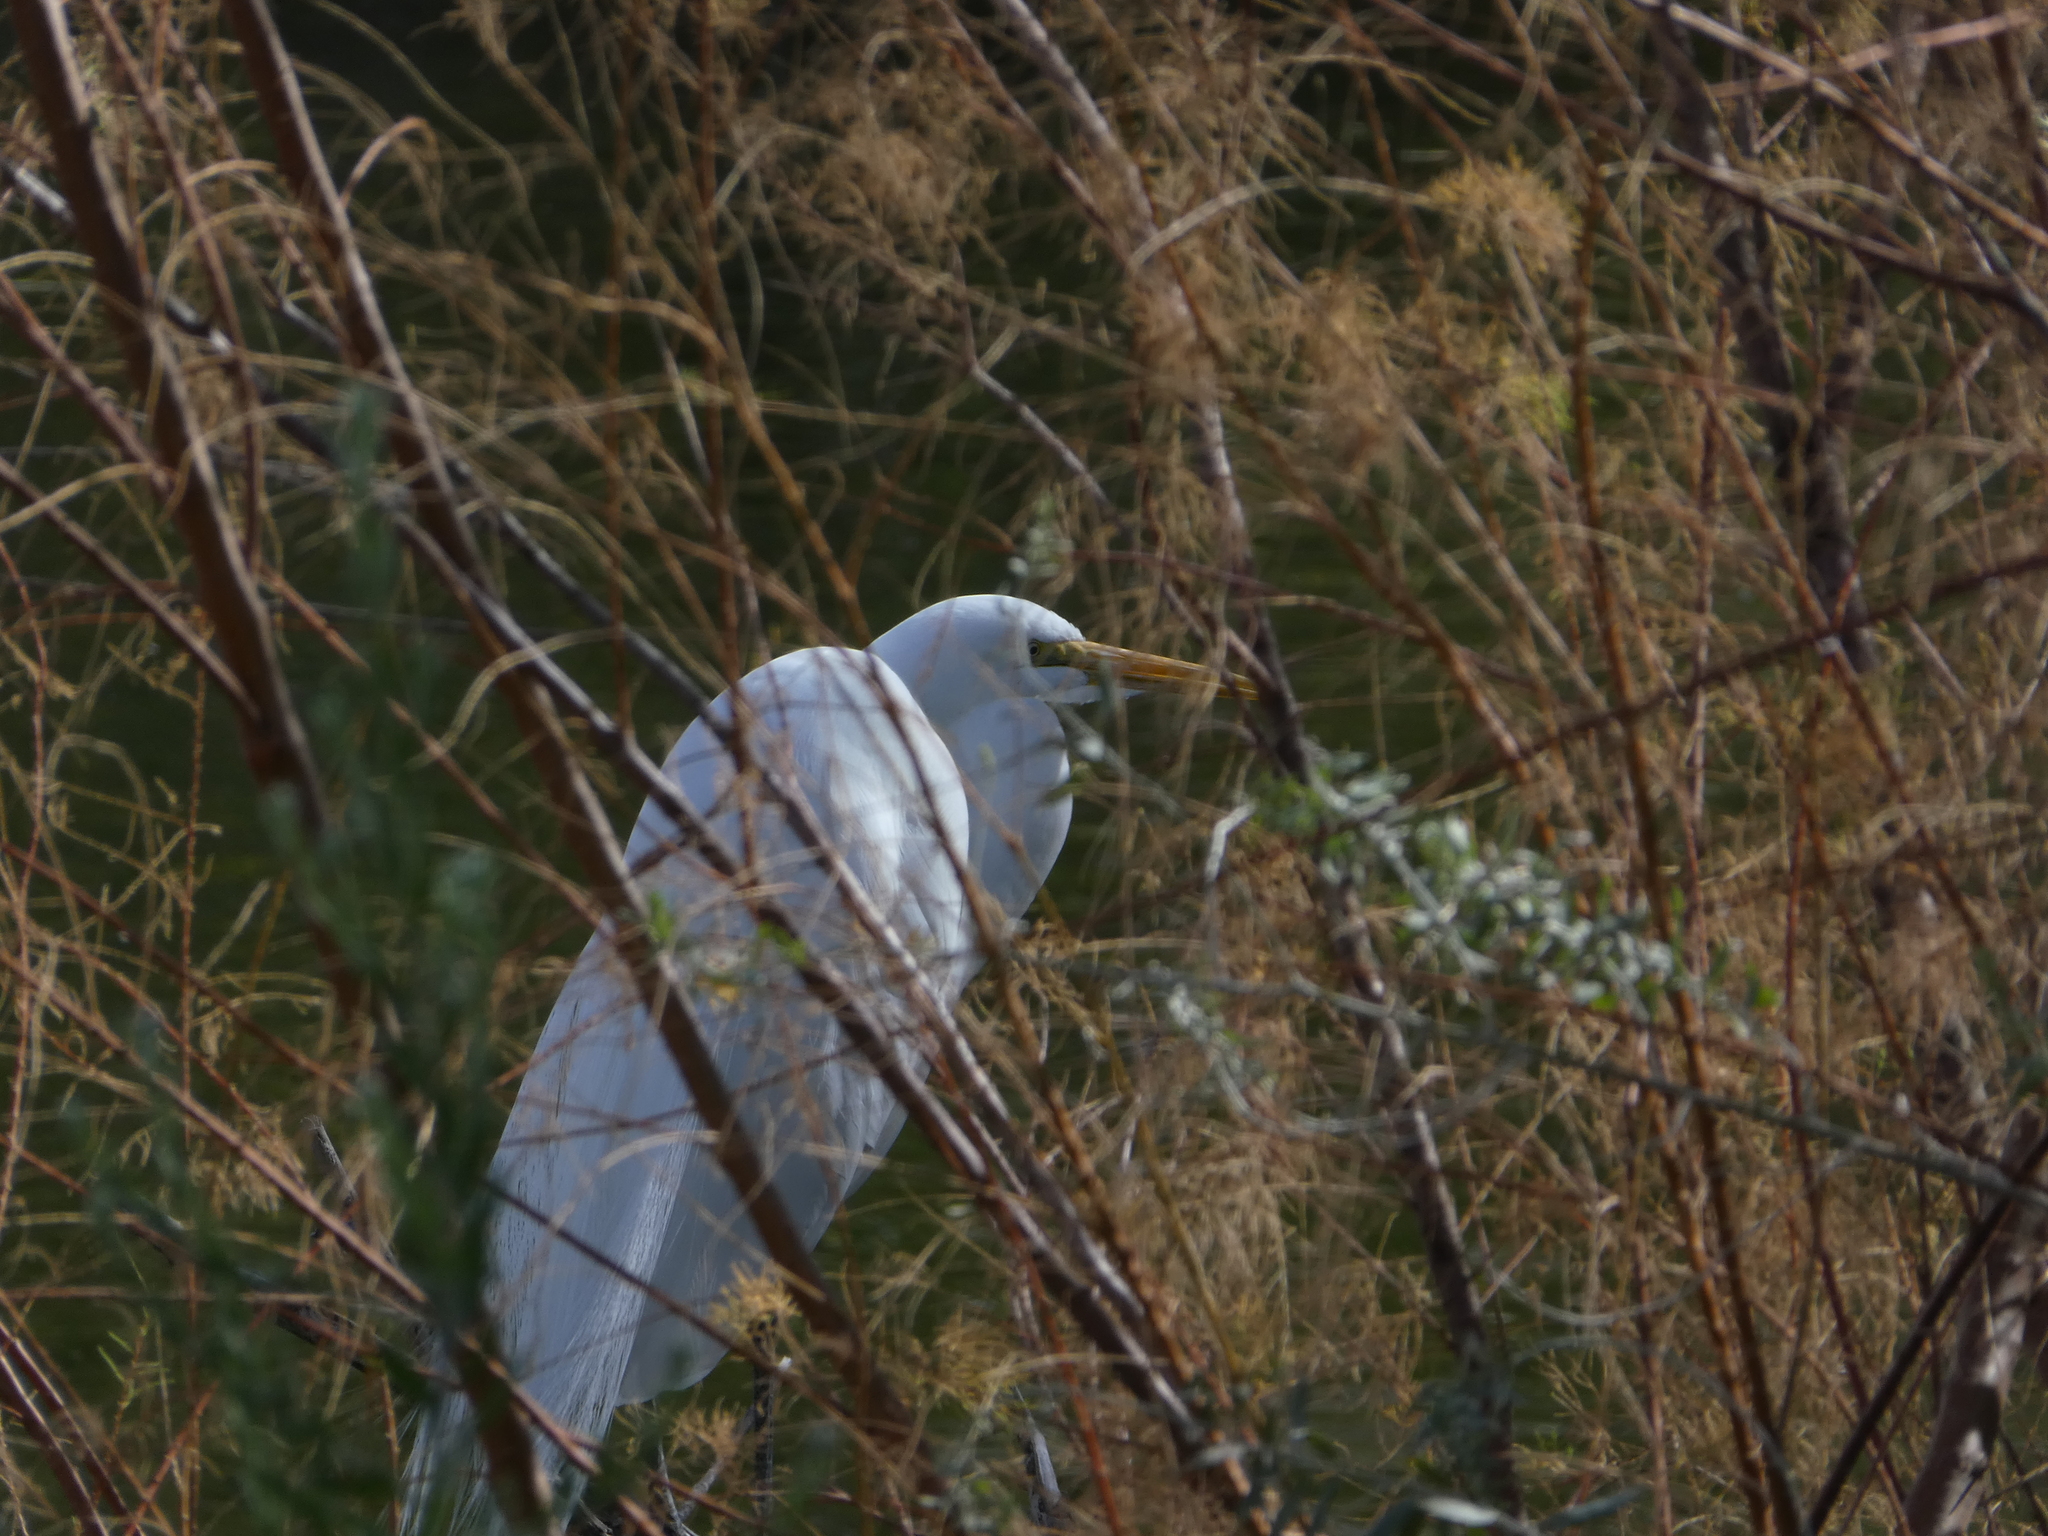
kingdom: Animalia
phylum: Chordata
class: Aves
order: Pelecaniformes
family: Ardeidae
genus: Ardea
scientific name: Ardea alba
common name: Great egret
